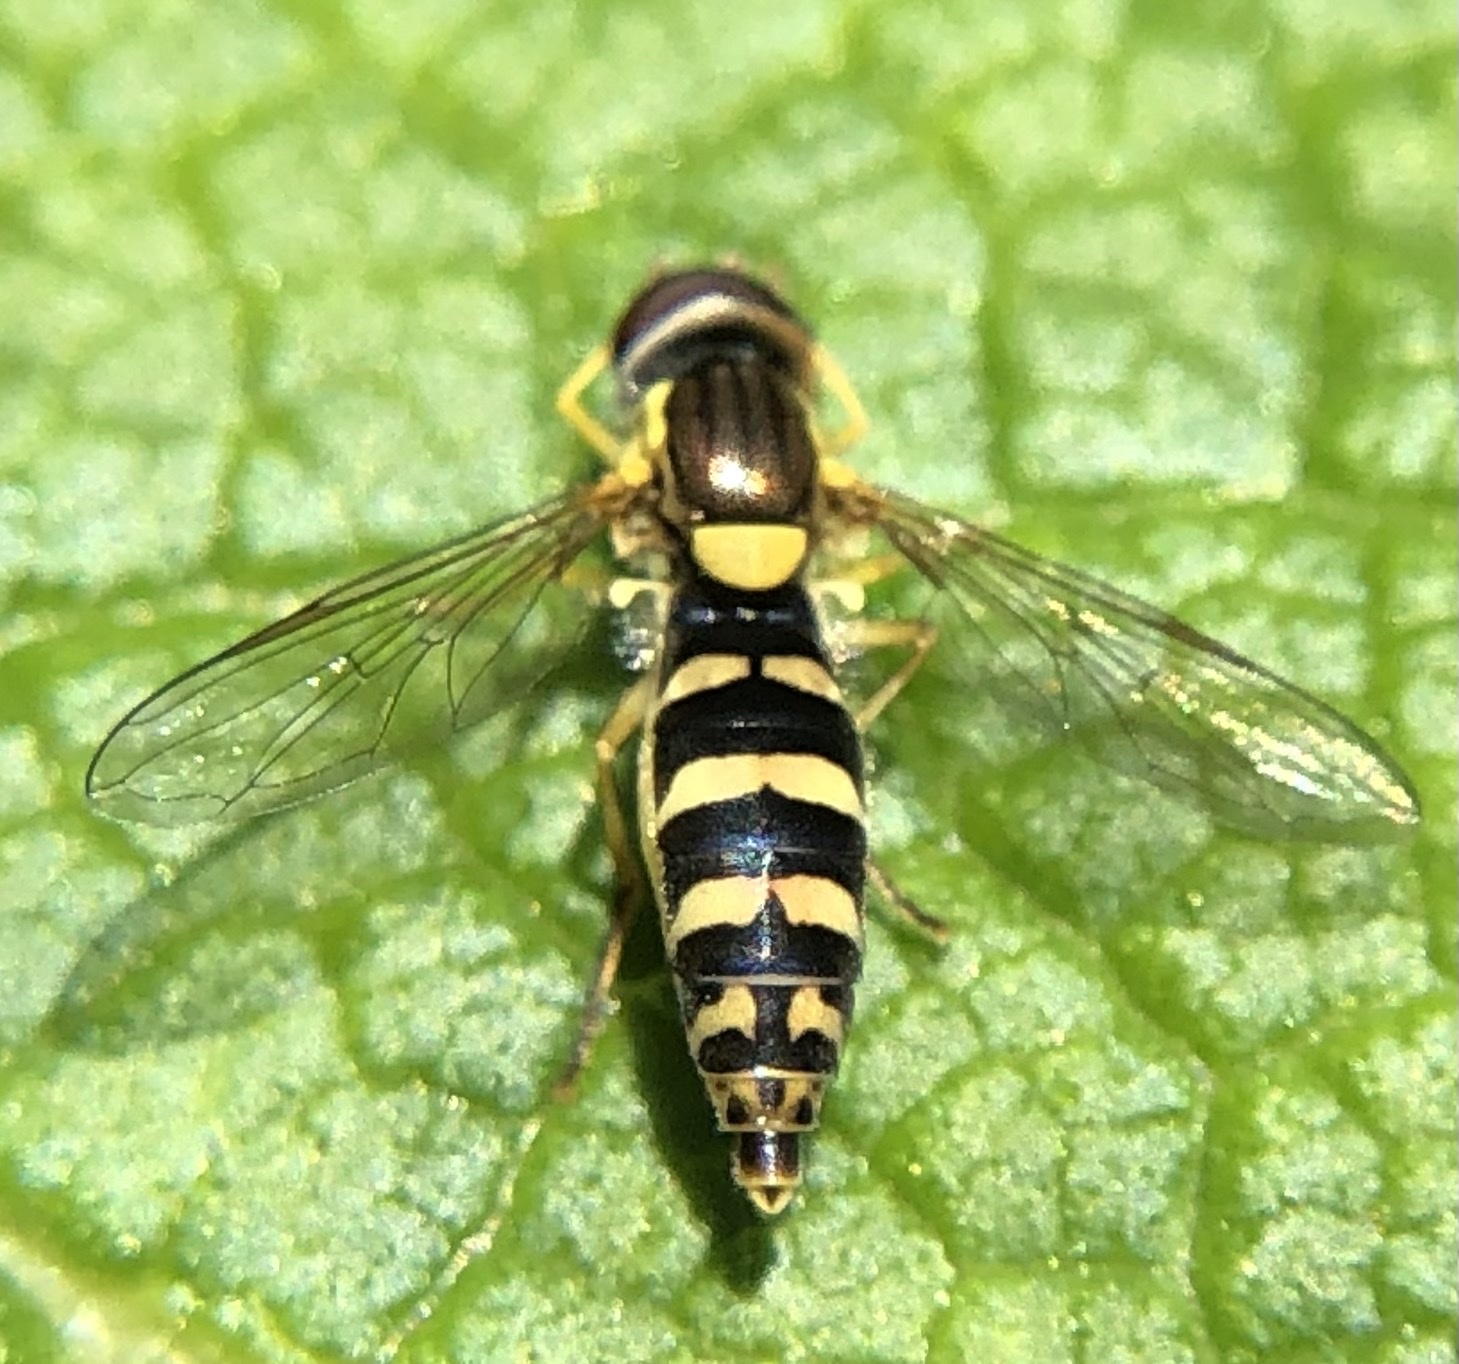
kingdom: Animalia
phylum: Arthropoda
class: Insecta
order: Diptera
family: Syrphidae
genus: Sphaerophoria
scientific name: Sphaerophoria
